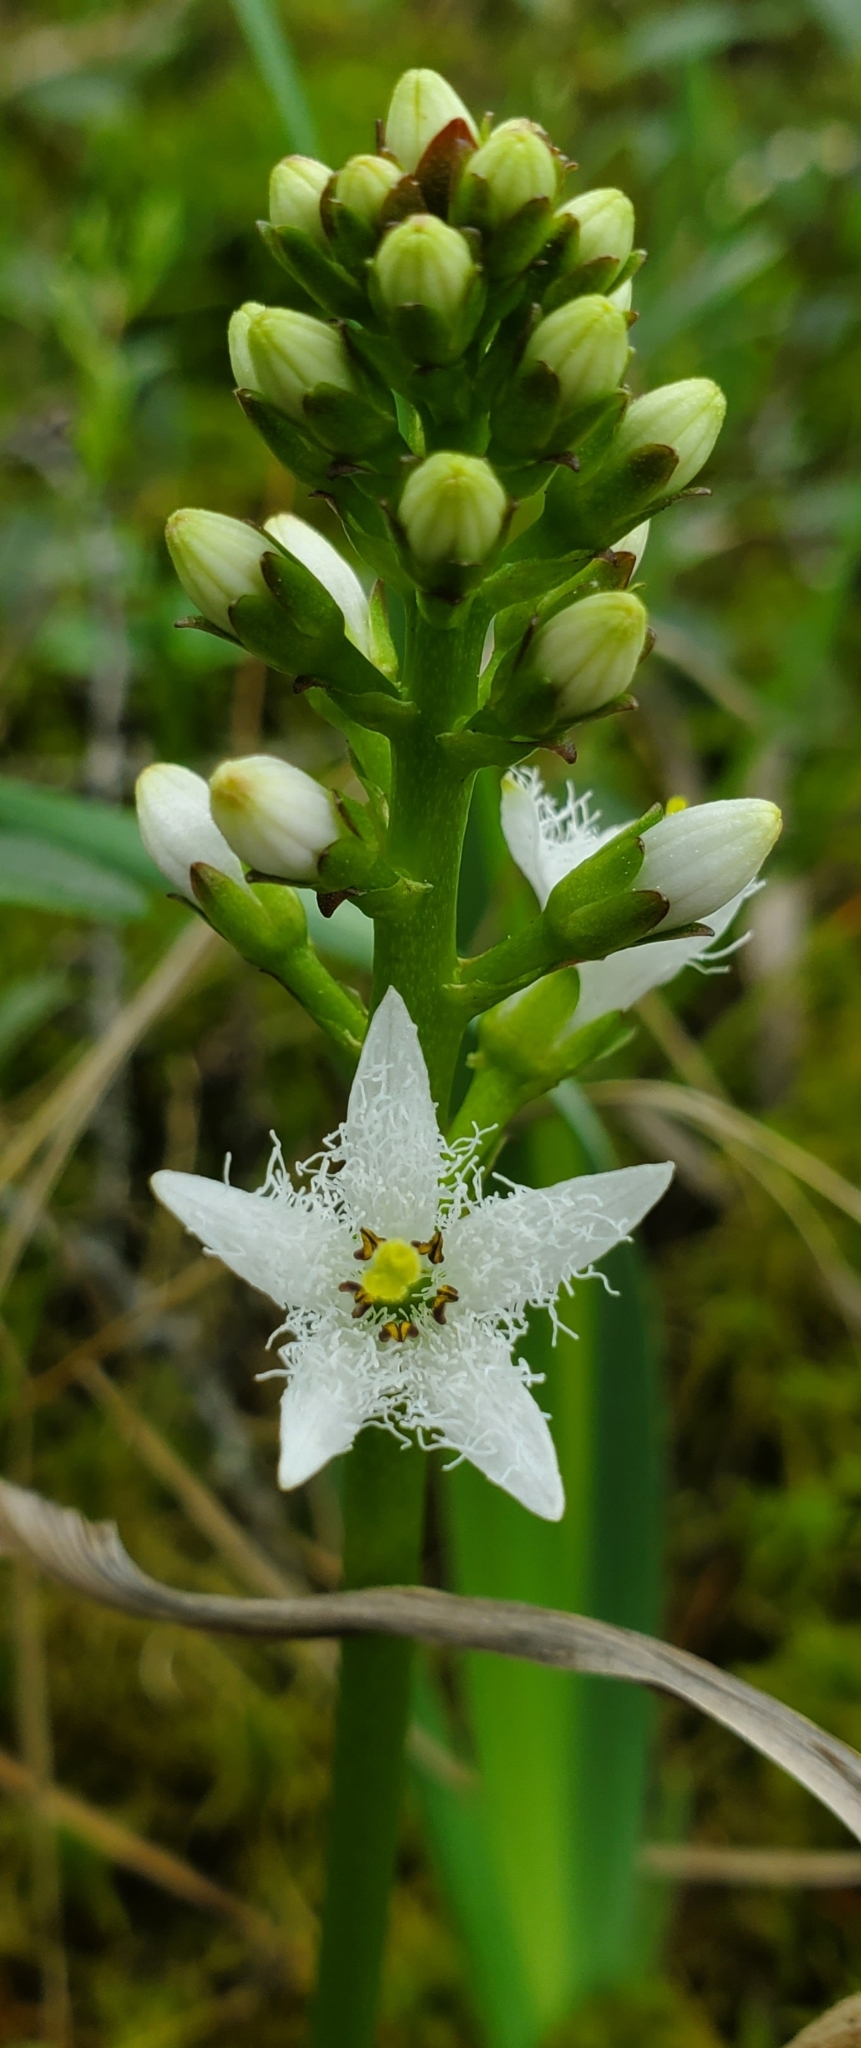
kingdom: Plantae
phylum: Tracheophyta
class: Magnoliopsida
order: Asterales
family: Menyanthaceae
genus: Menyanthes
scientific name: Menyanthes trifoliata
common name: Bogbean
